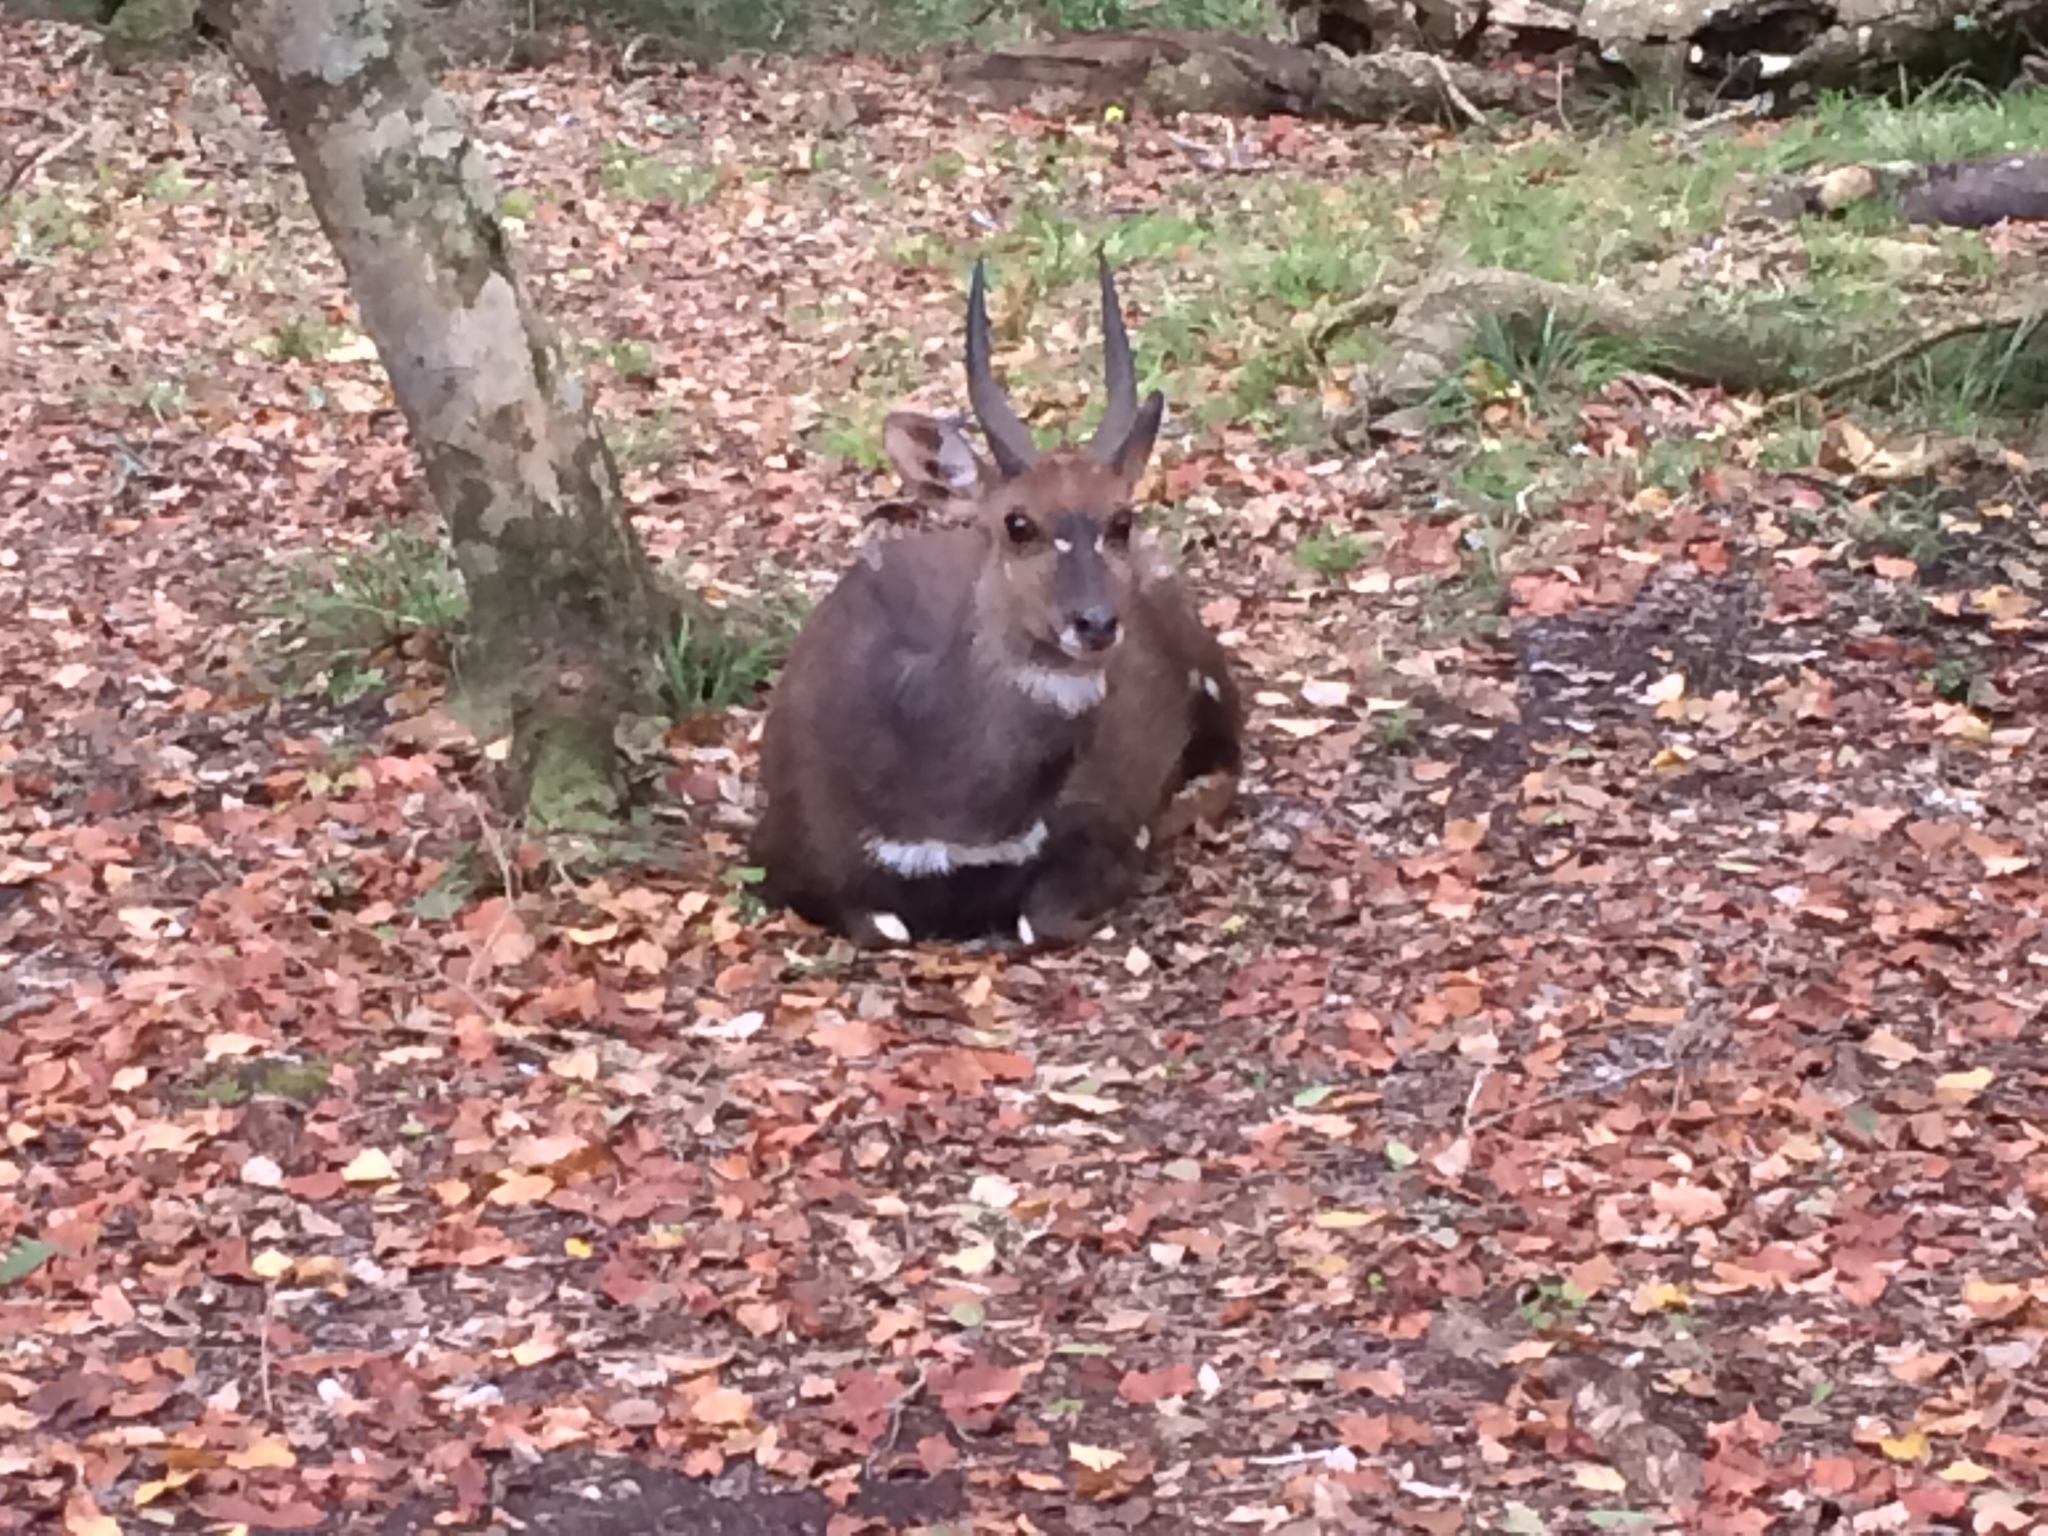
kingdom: Animalia
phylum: Chordata
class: Mammalia
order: Artiodactyla
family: Bovidae
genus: Tragelaphus
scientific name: Tragelaphus scriptus
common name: Bushbuck
